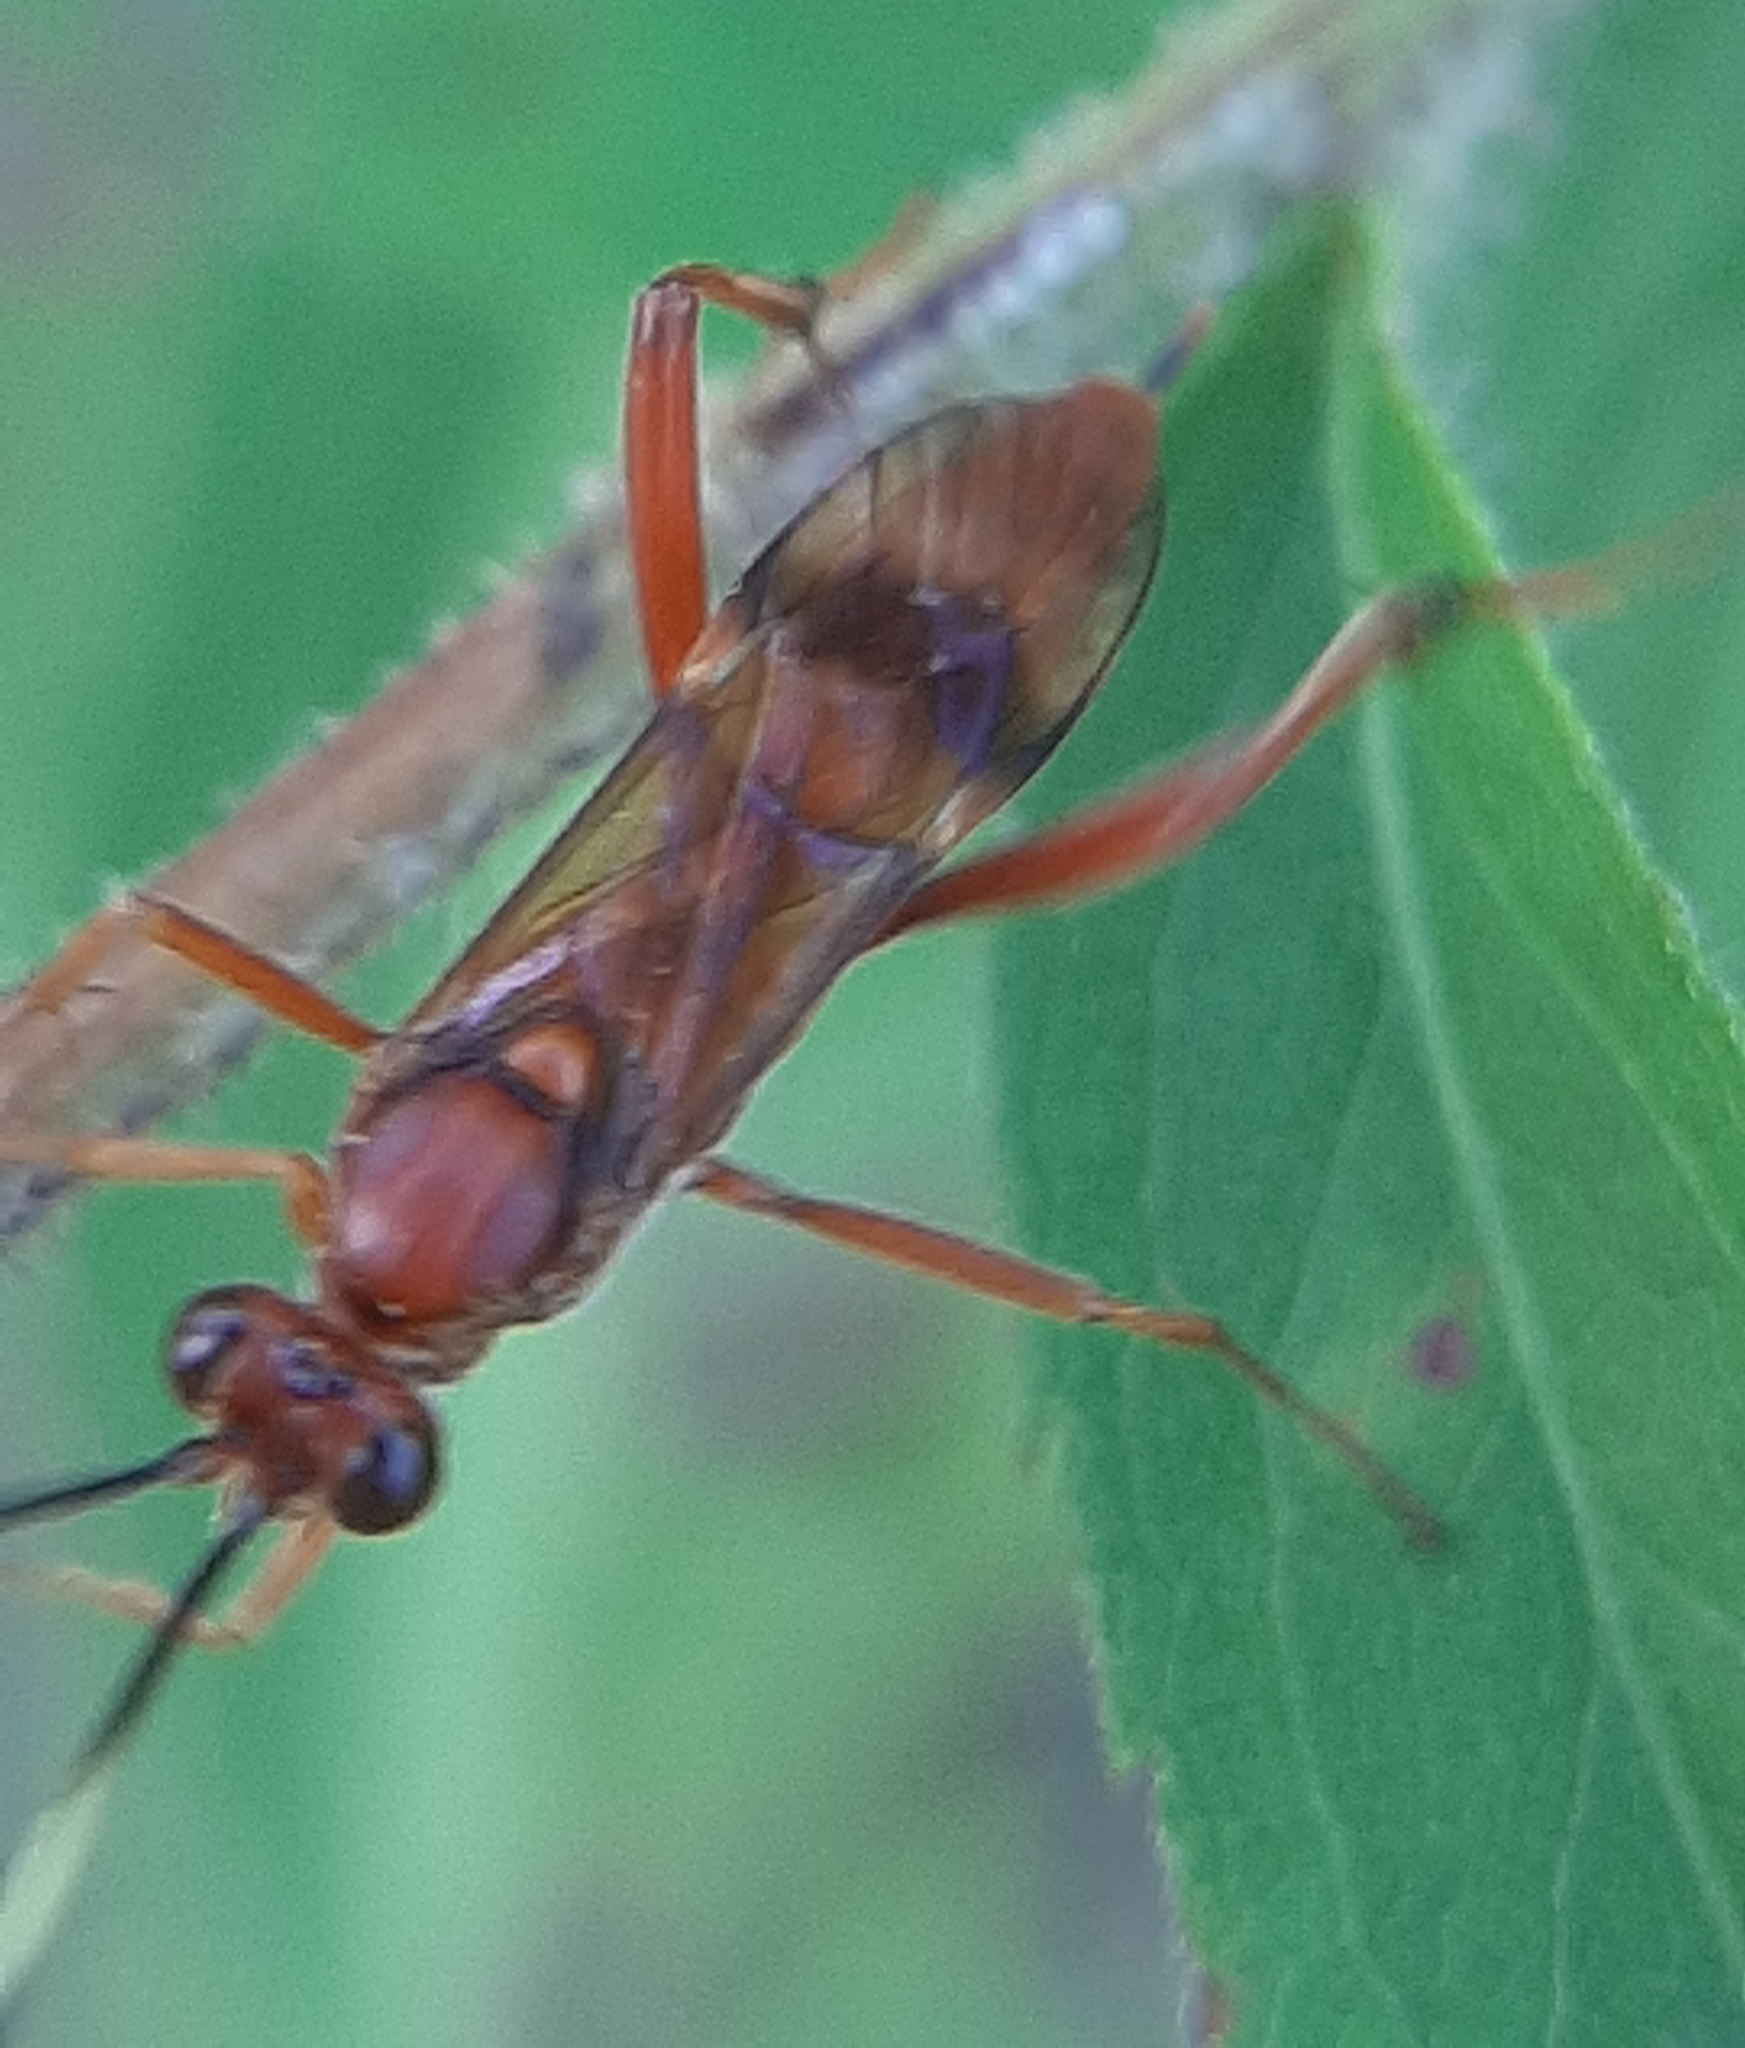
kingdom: Animalia
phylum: Arthropoda
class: Insecta
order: Hymenoptera
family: Ichneumonidae
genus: Exetastes
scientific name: Exetastes angustoralis
